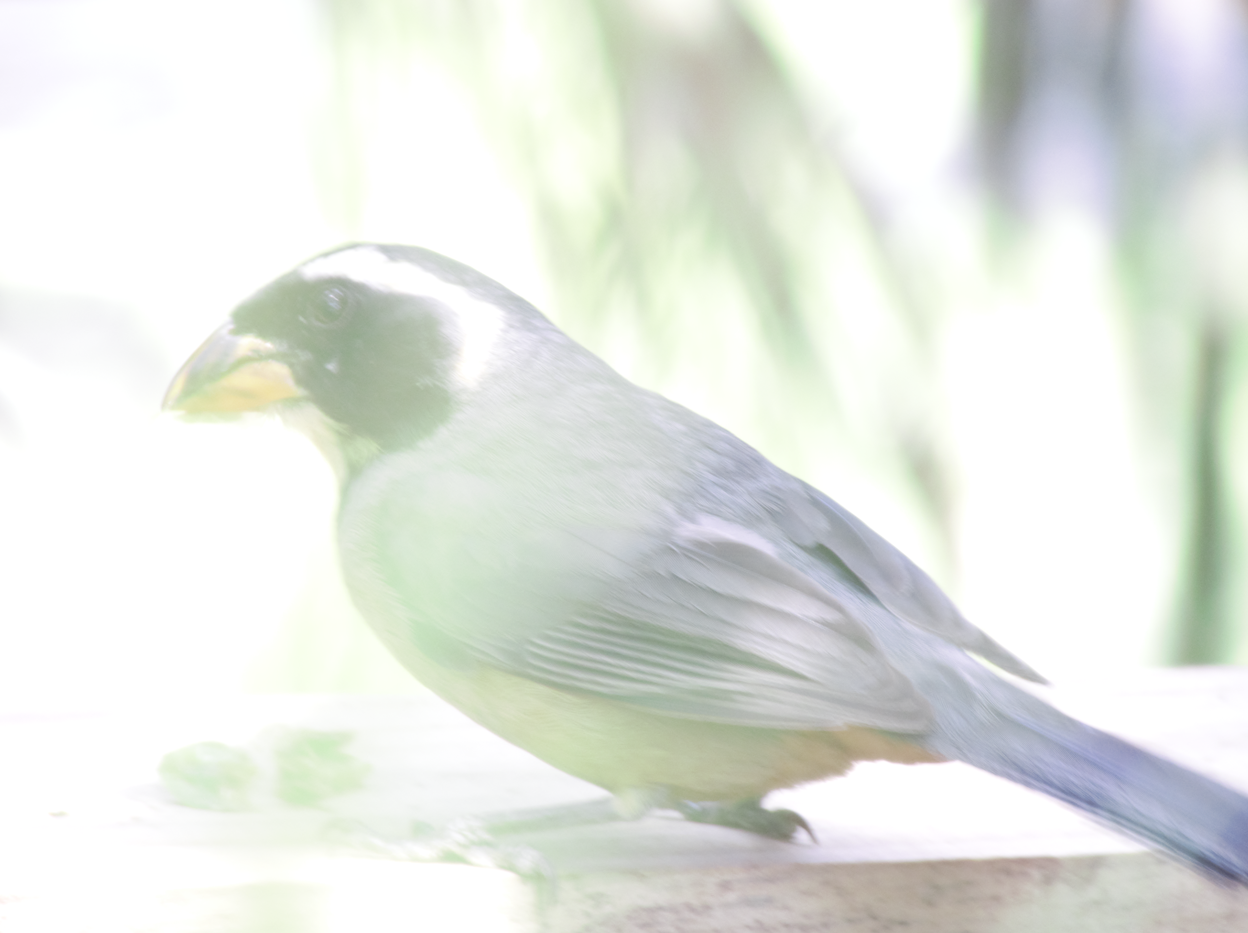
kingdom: Animalia
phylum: Chordata
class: Aves
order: Passeriformes
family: Thraupidae
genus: Saltator
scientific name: Saltator aurantiirostris
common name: Golden-billed saltator
